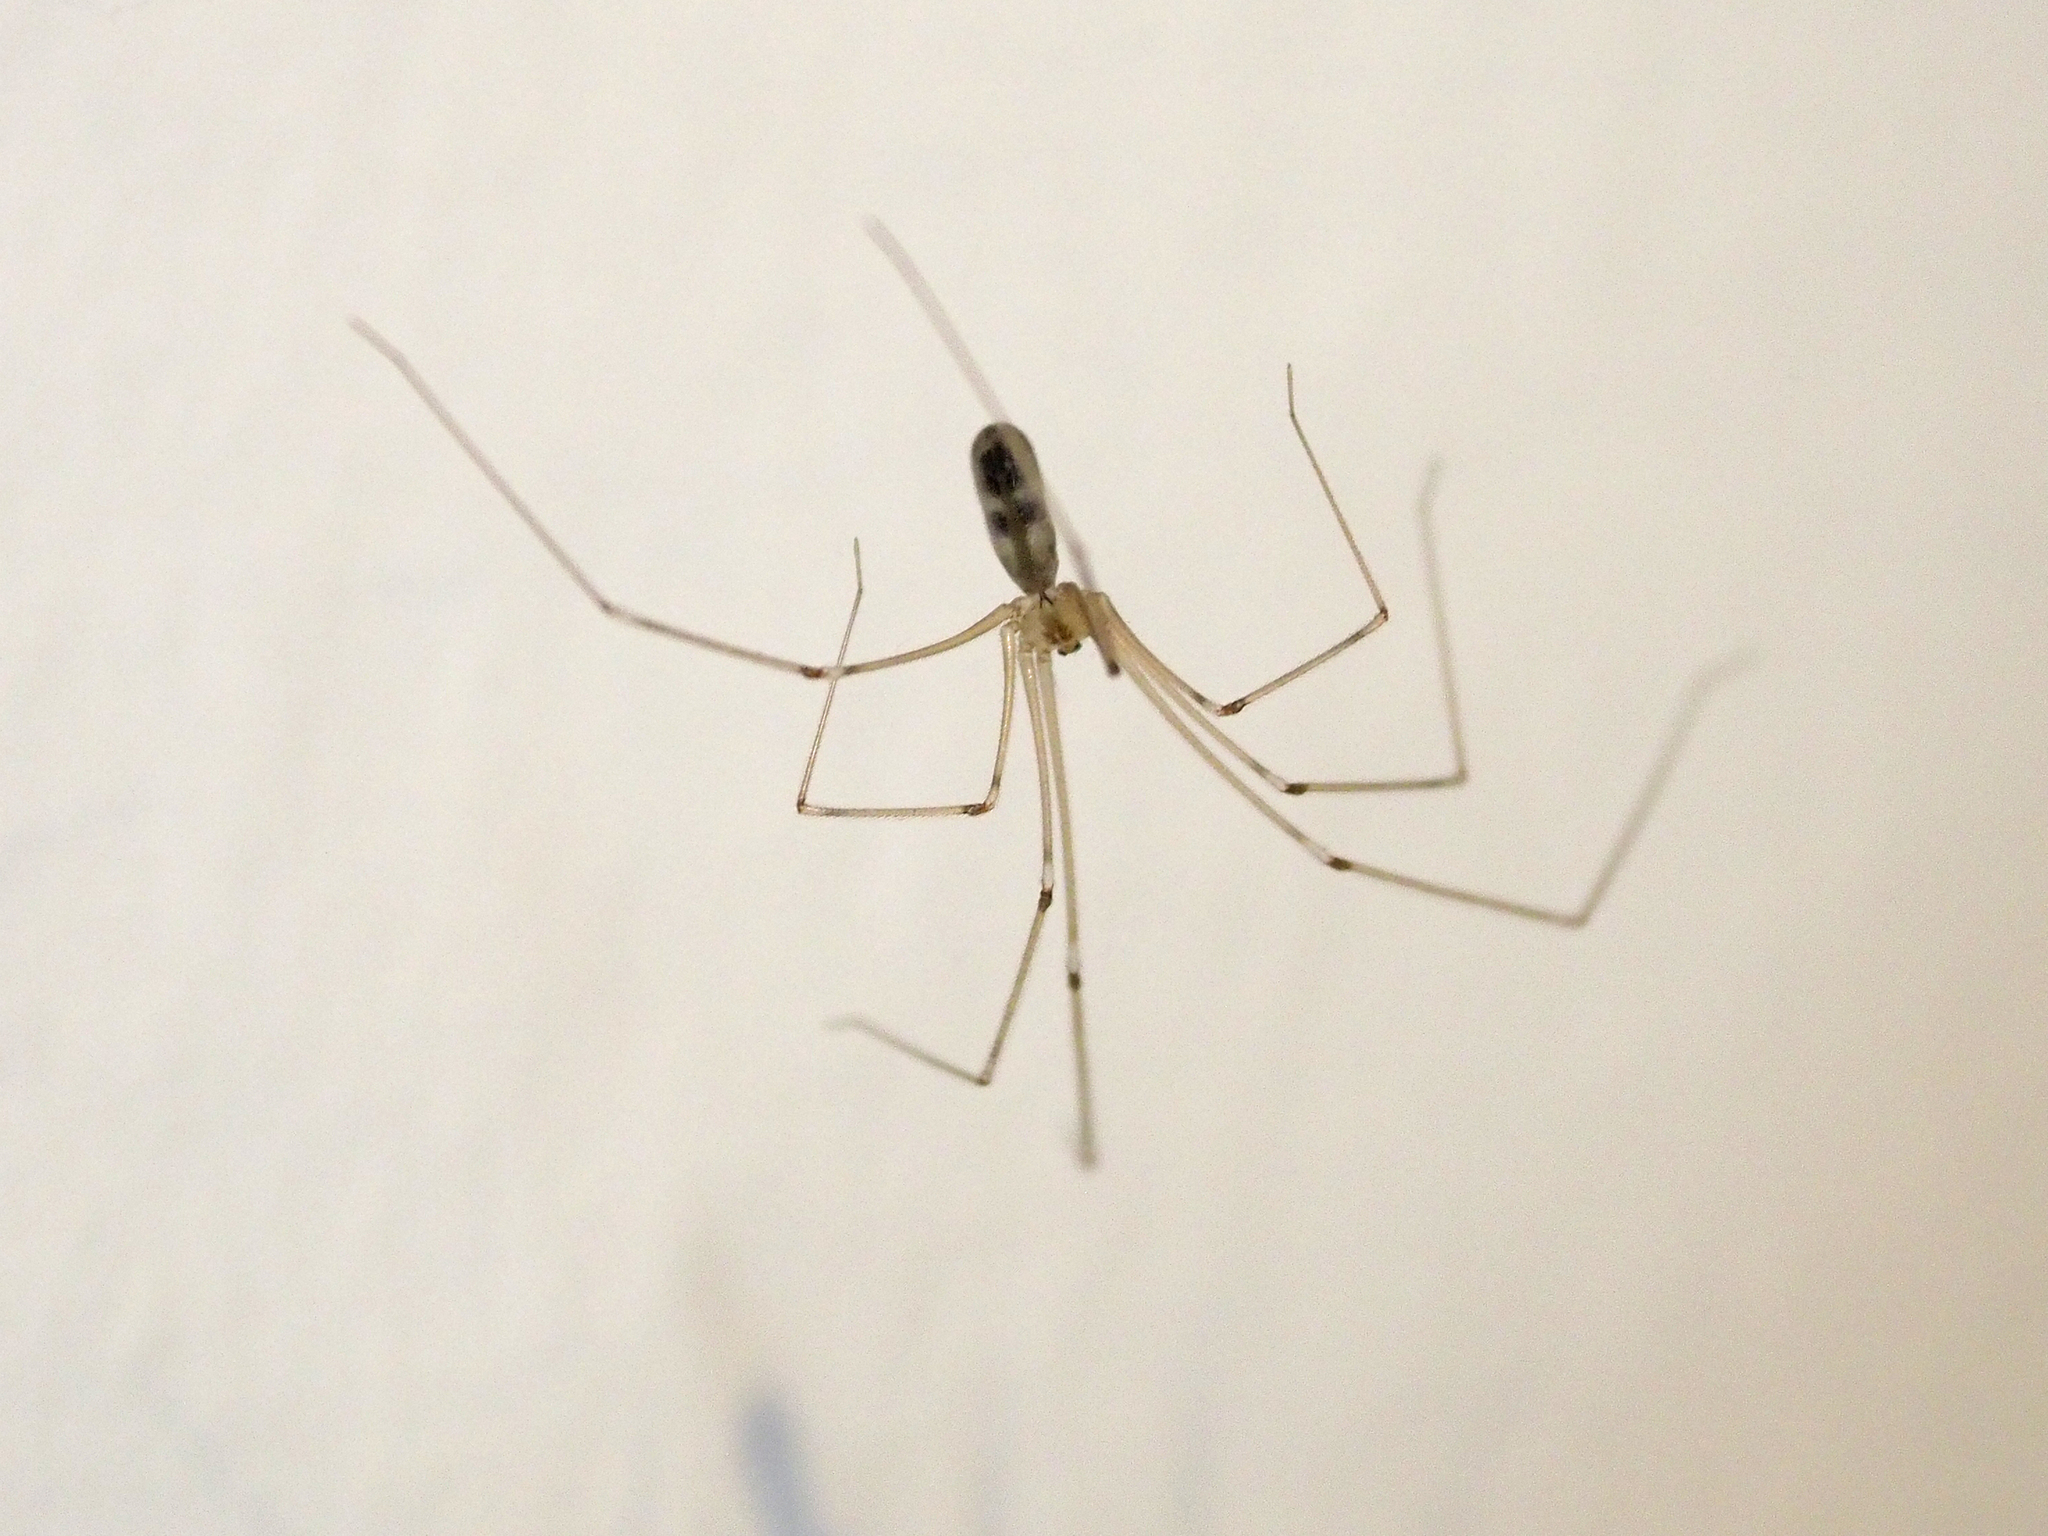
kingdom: Animalia
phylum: Arthropoda
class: Arachnida
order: Araneae
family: Pholcidae
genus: Pholcus
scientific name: Pholcus phalangioides
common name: Longbodied cellar spider
